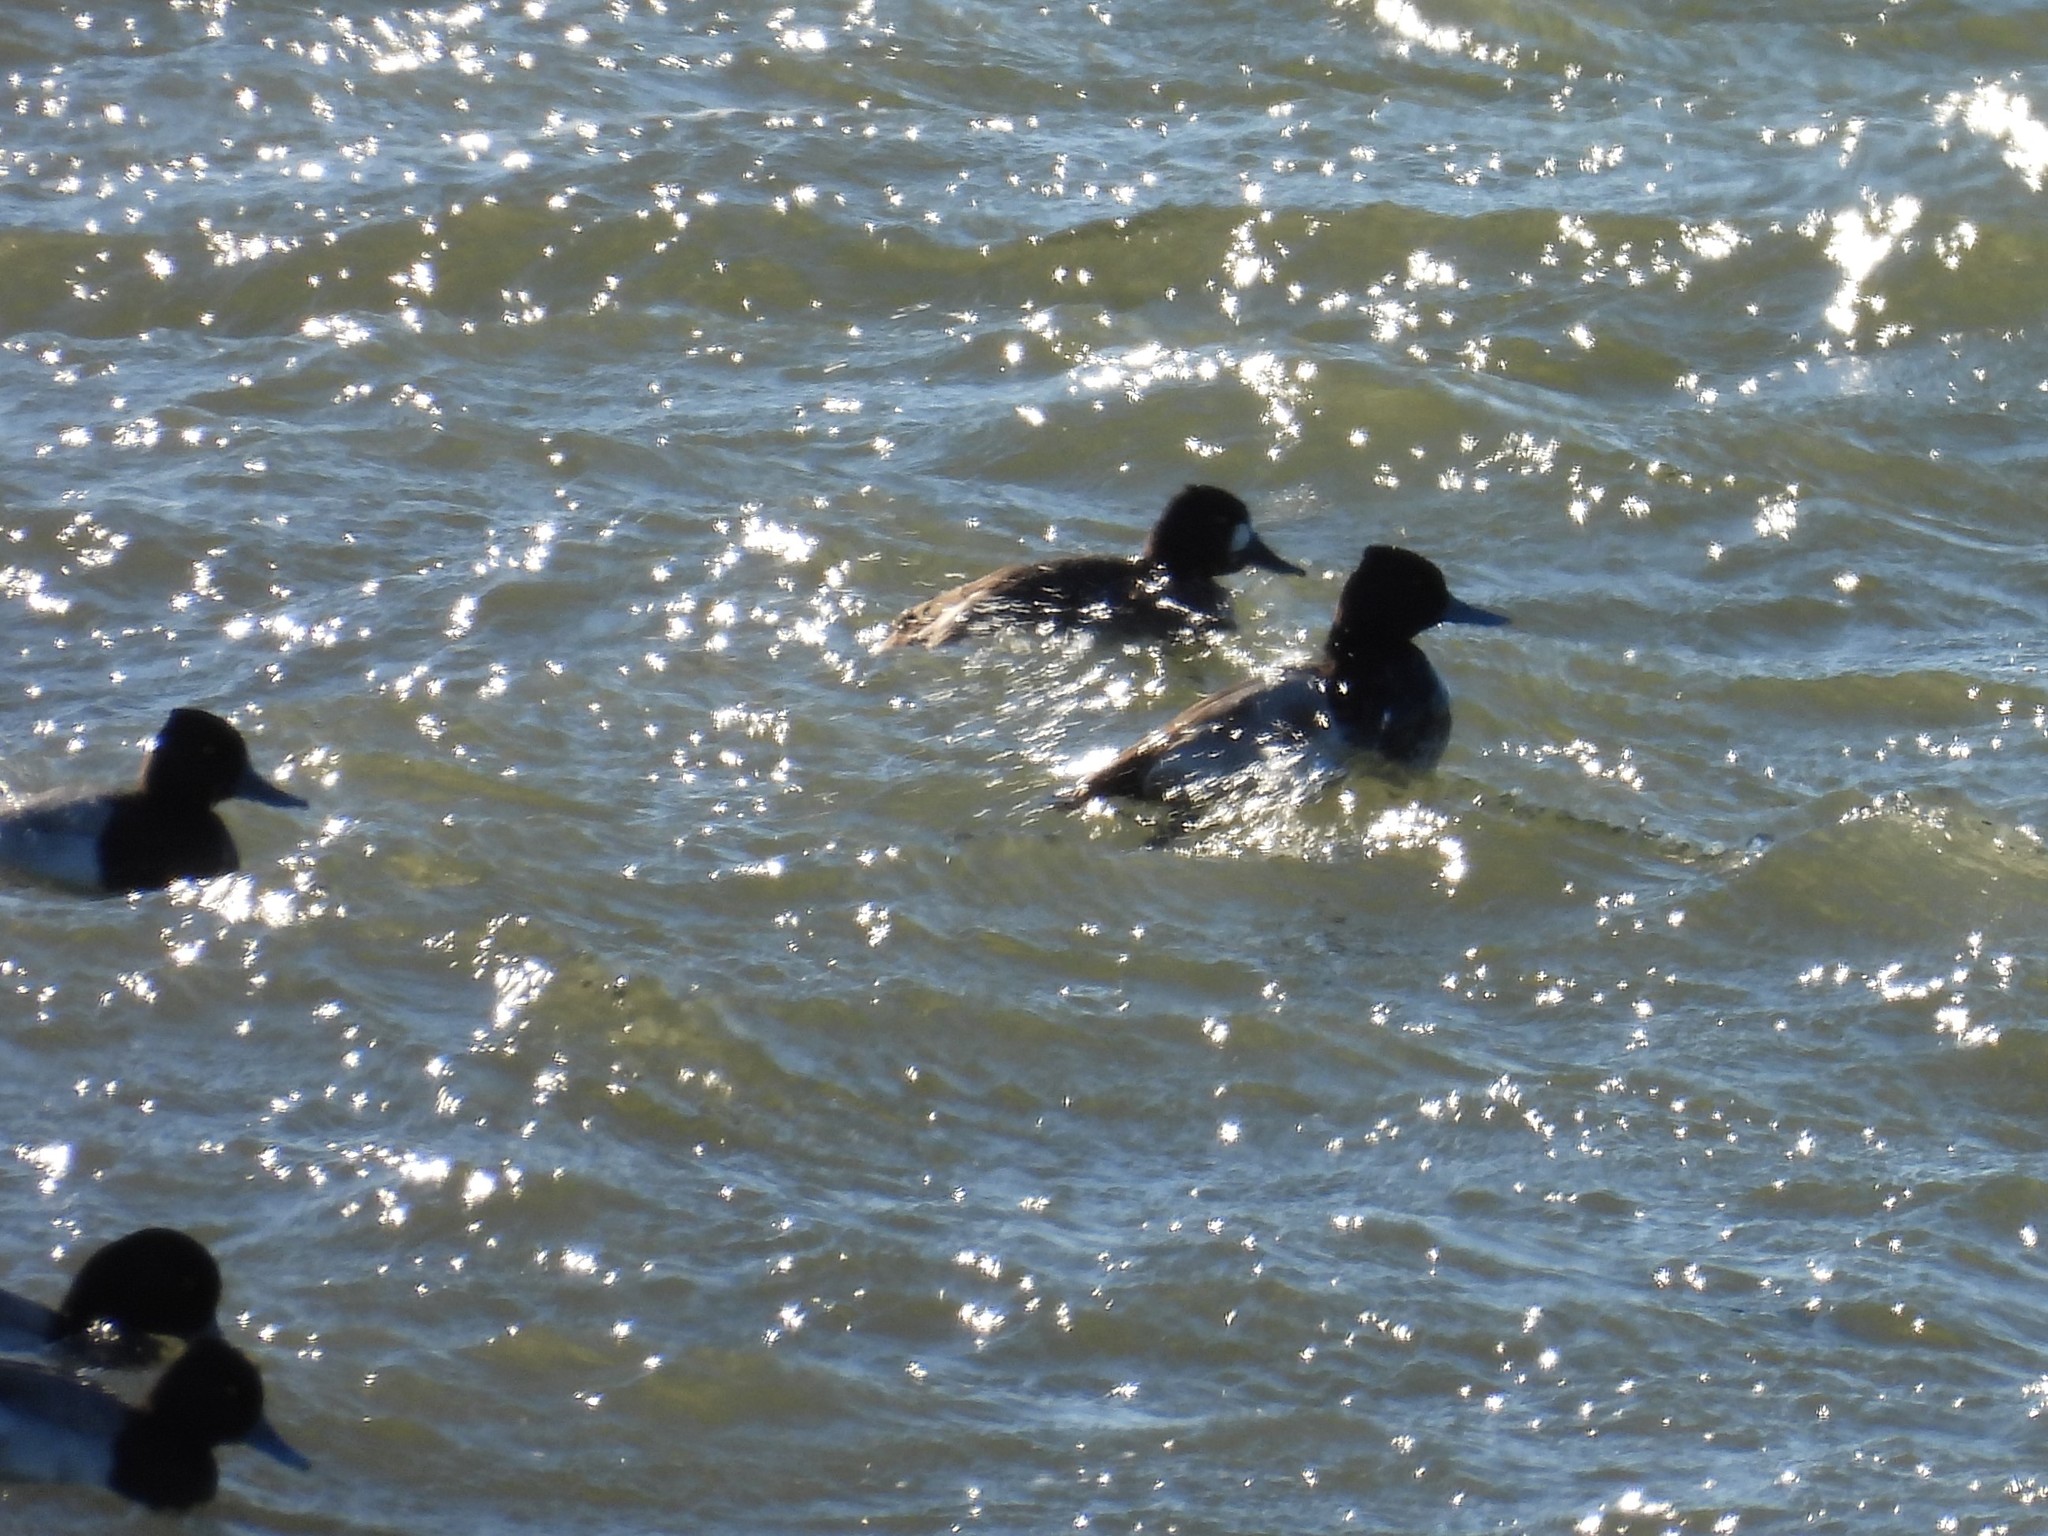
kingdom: Animalia
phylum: Chordata
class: Aves
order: Anseriformes
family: Anatidae
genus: Aythya
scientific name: Aythya affinis
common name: Lesser scaup
